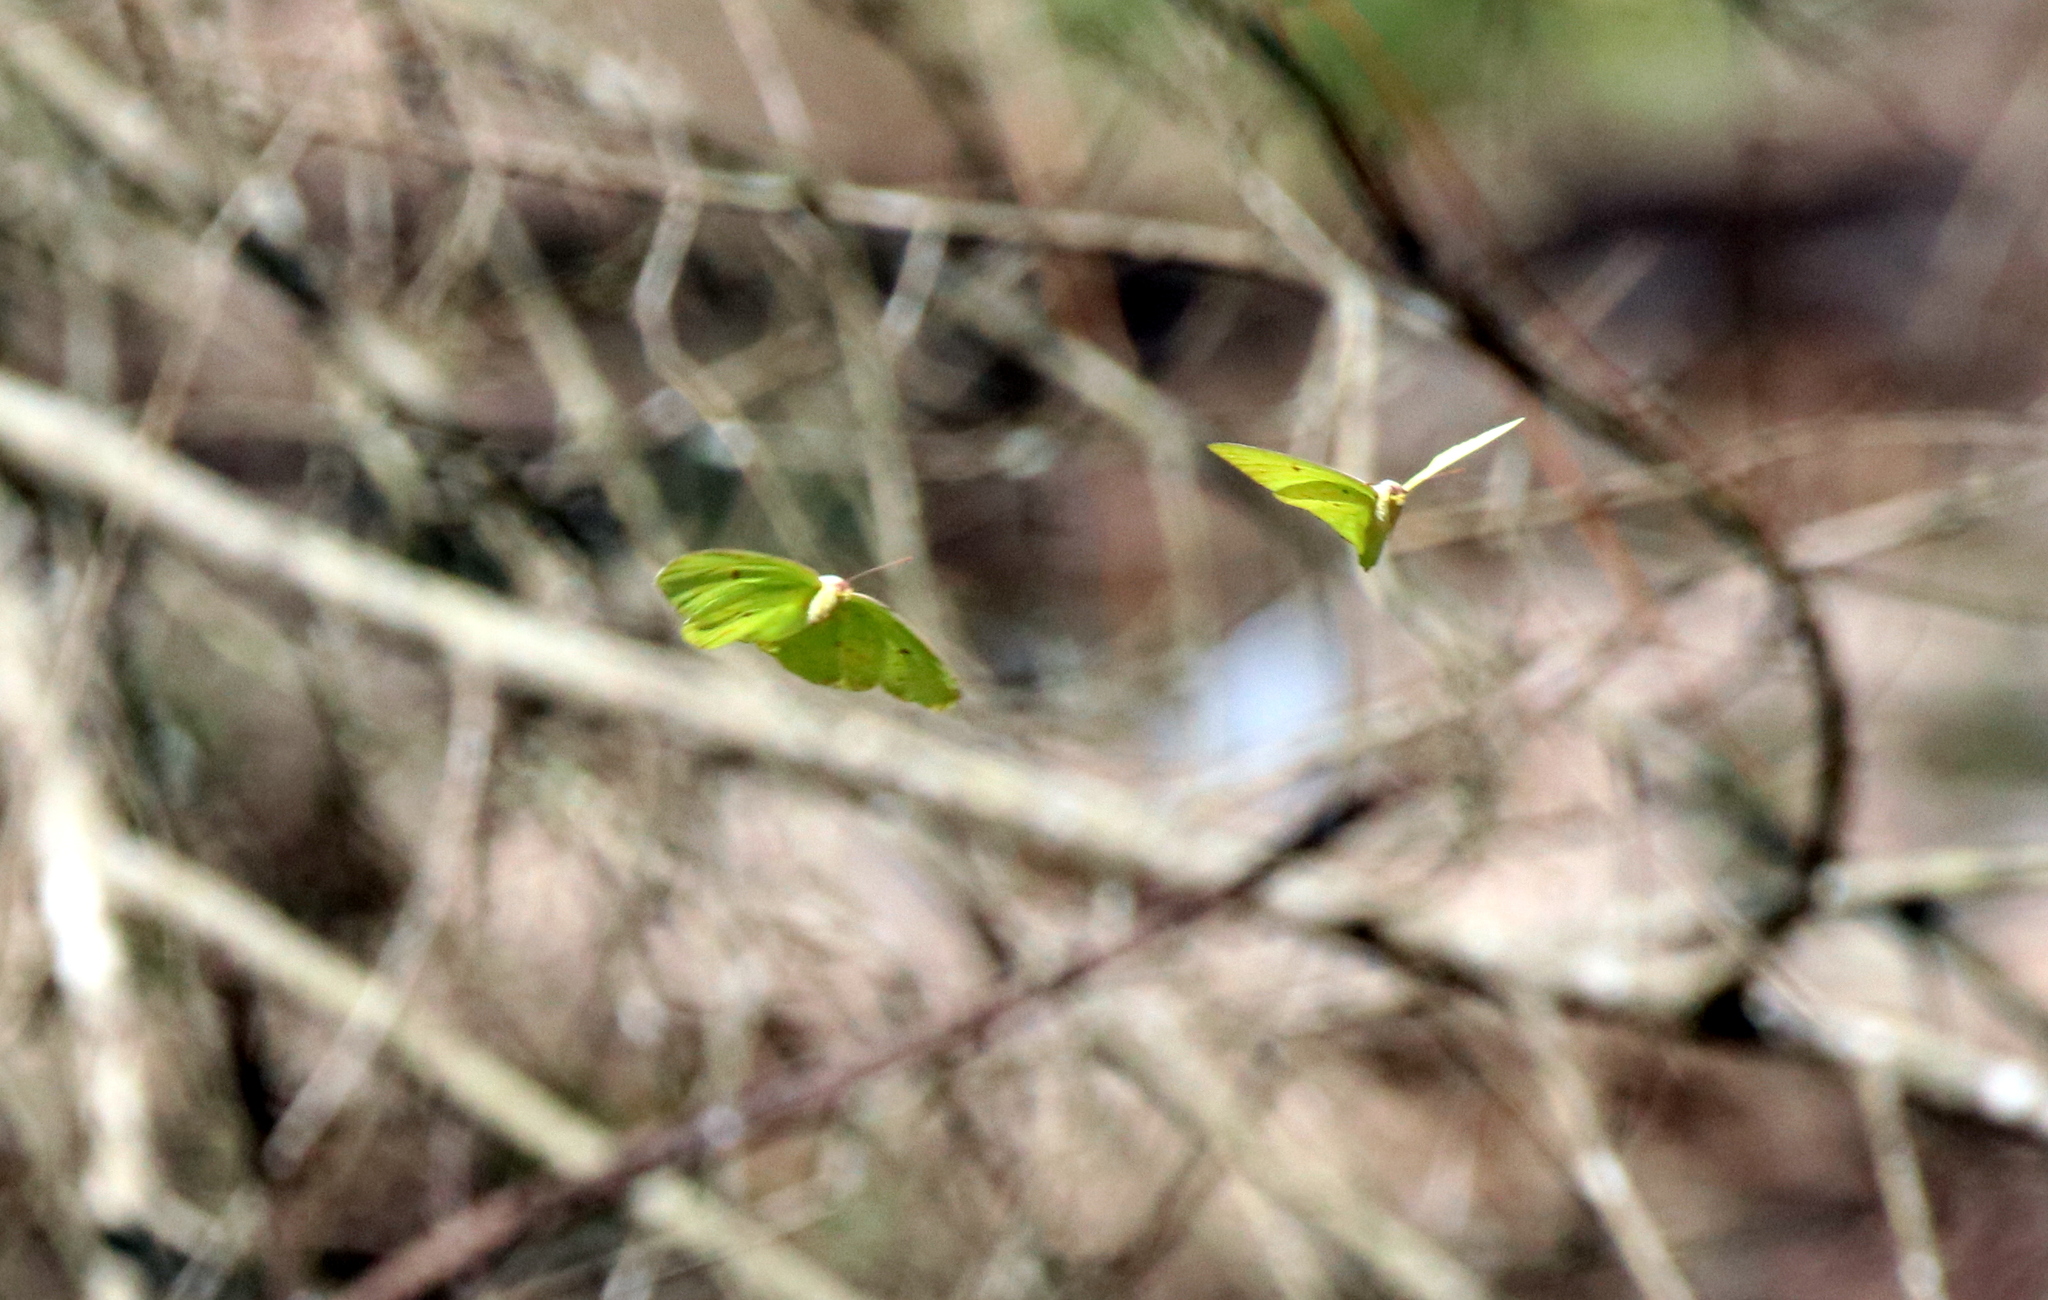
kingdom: Animalia
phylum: Arthropoda
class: Insecta
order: Lepidoptera
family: Pieridae
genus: Phoebis
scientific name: Phoebis sennae
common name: Cloudless sulphur
